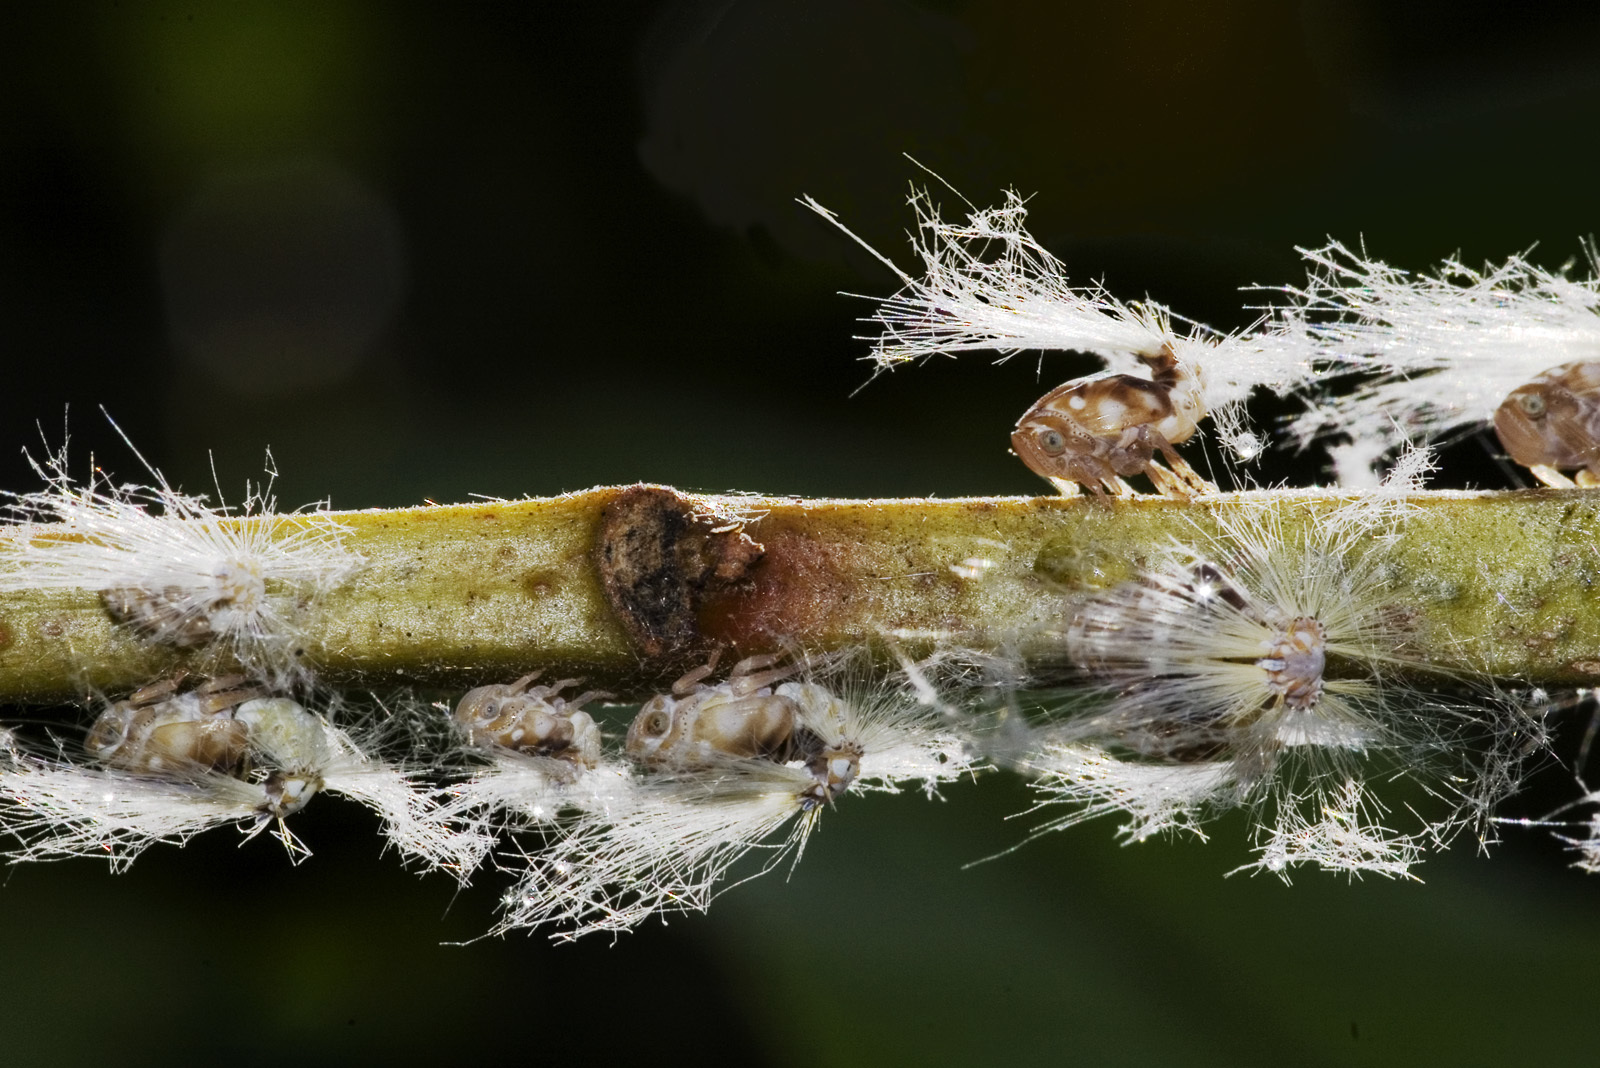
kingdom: Animalia
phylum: Arthropoda
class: Insecta
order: Hemiptera
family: Ricaniidae
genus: Scolypopa
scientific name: Scolypopa australis
